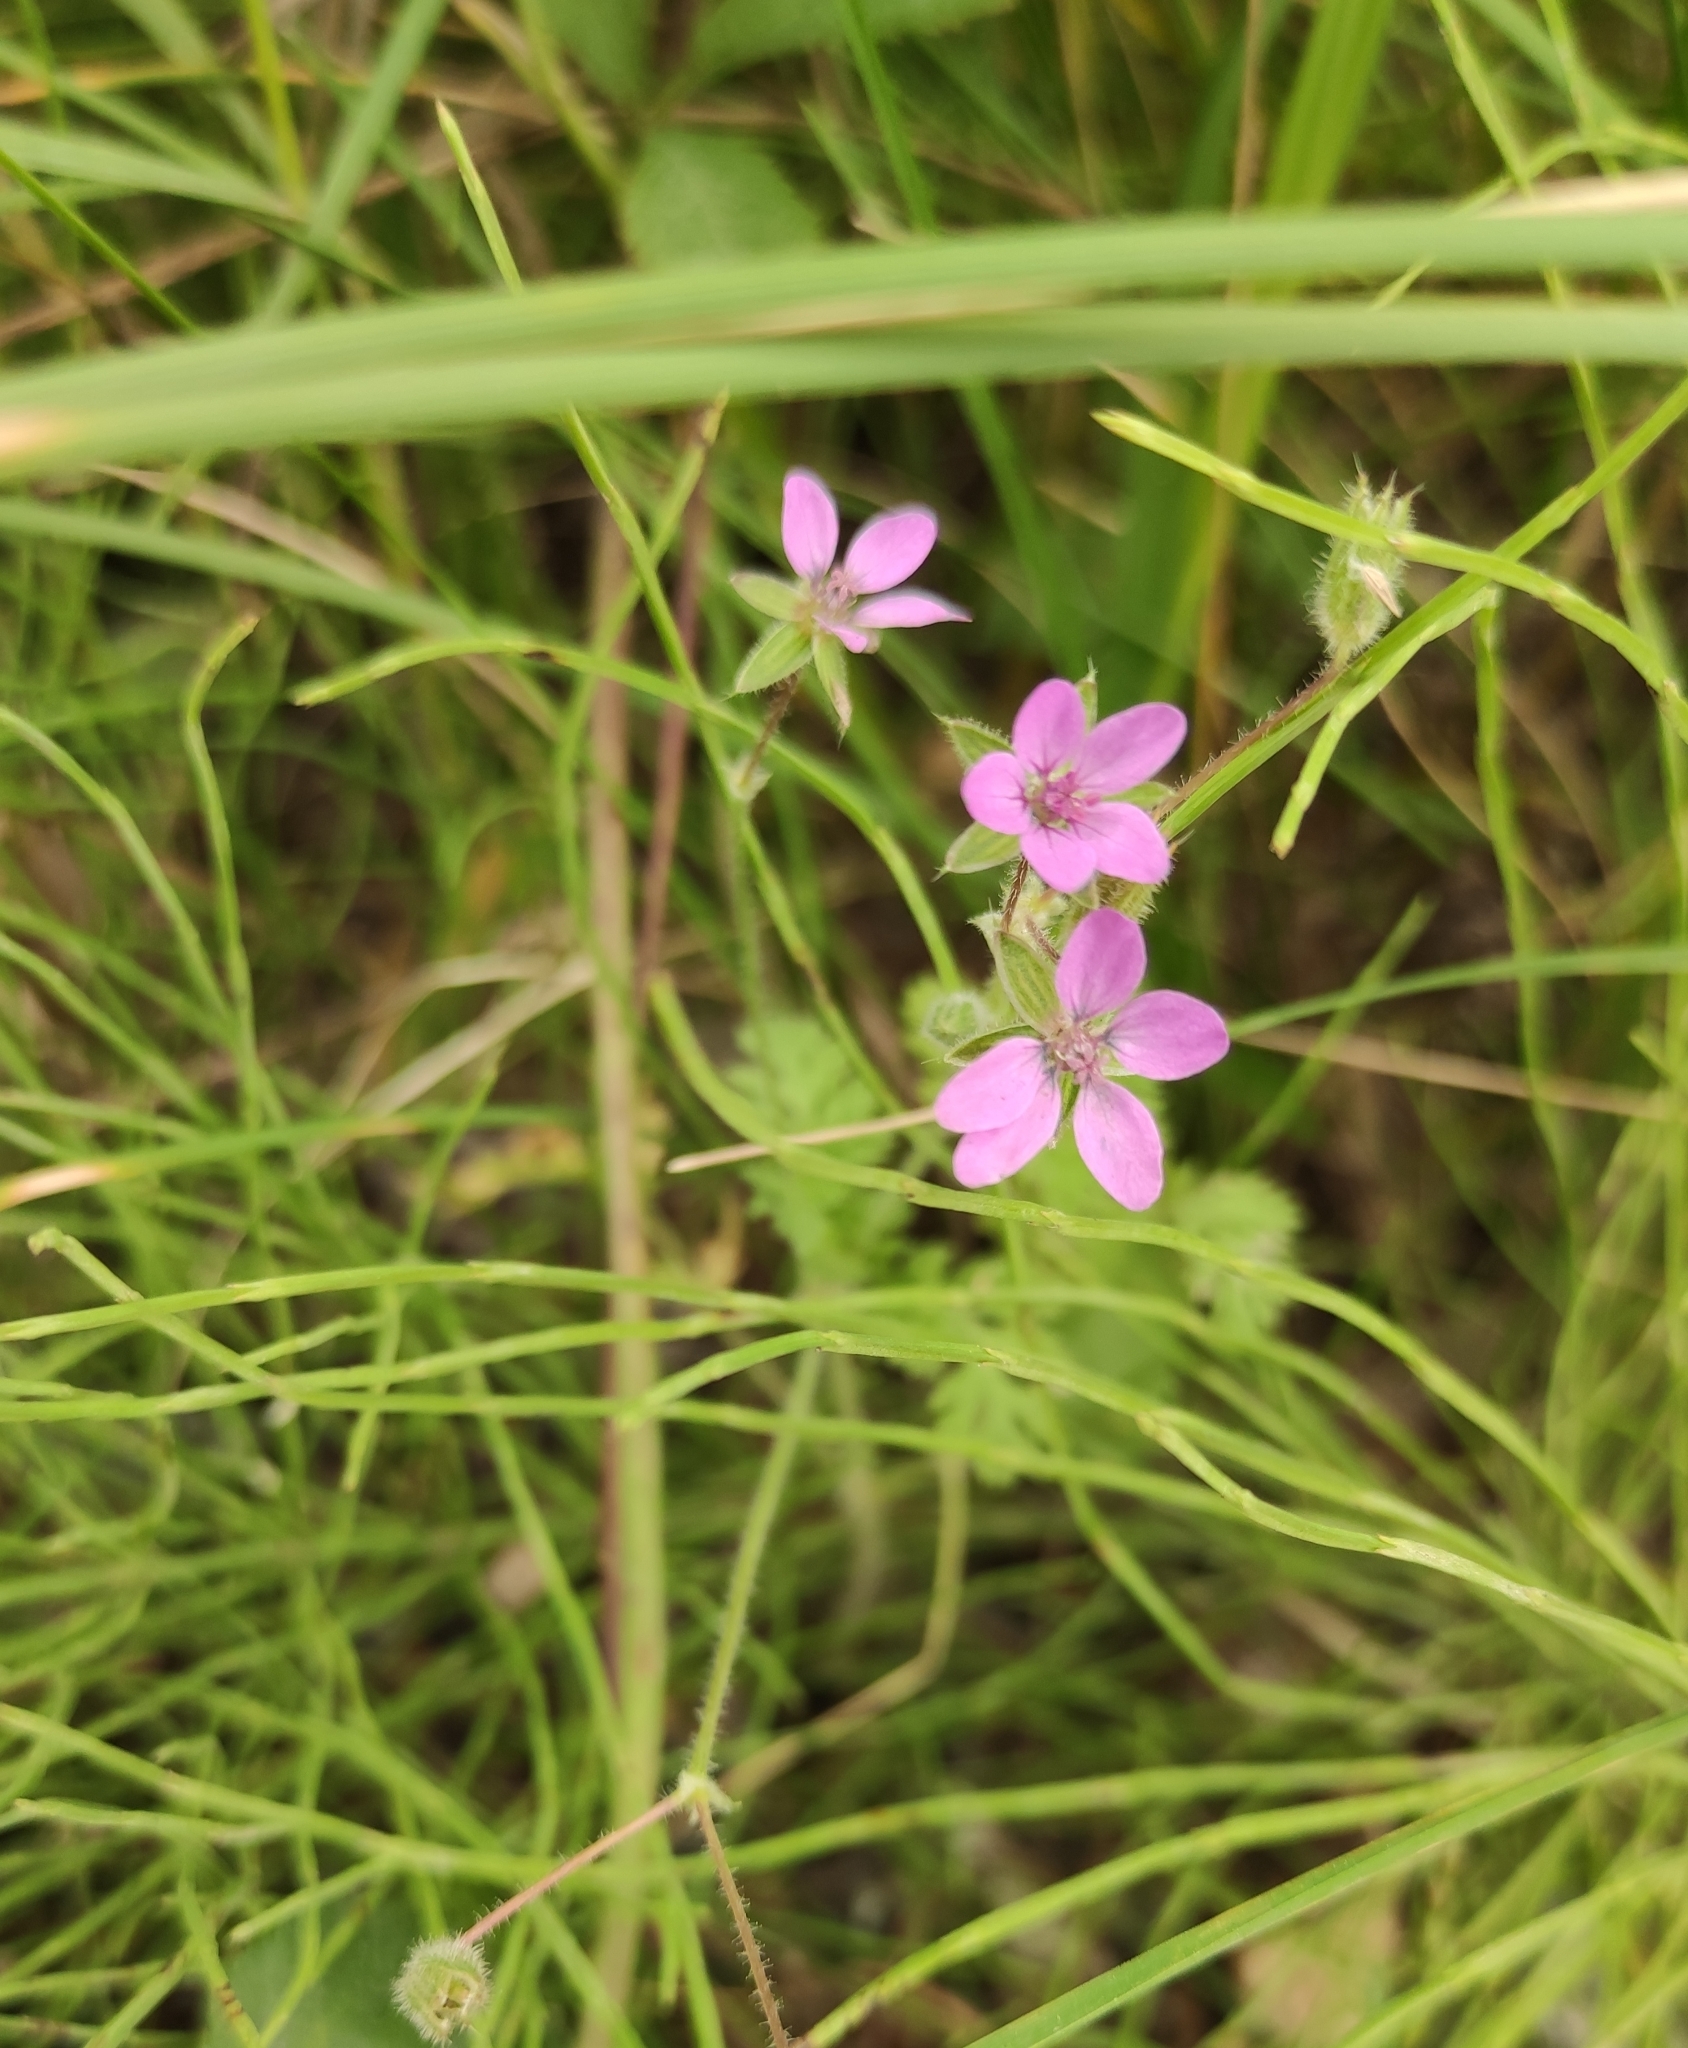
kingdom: Plantae
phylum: Tracheophyta
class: Magnoliopsida
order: Geraniales
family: Geraniaceae
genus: Erodium
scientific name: Erodium cicutarium
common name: Common stork's-bill
